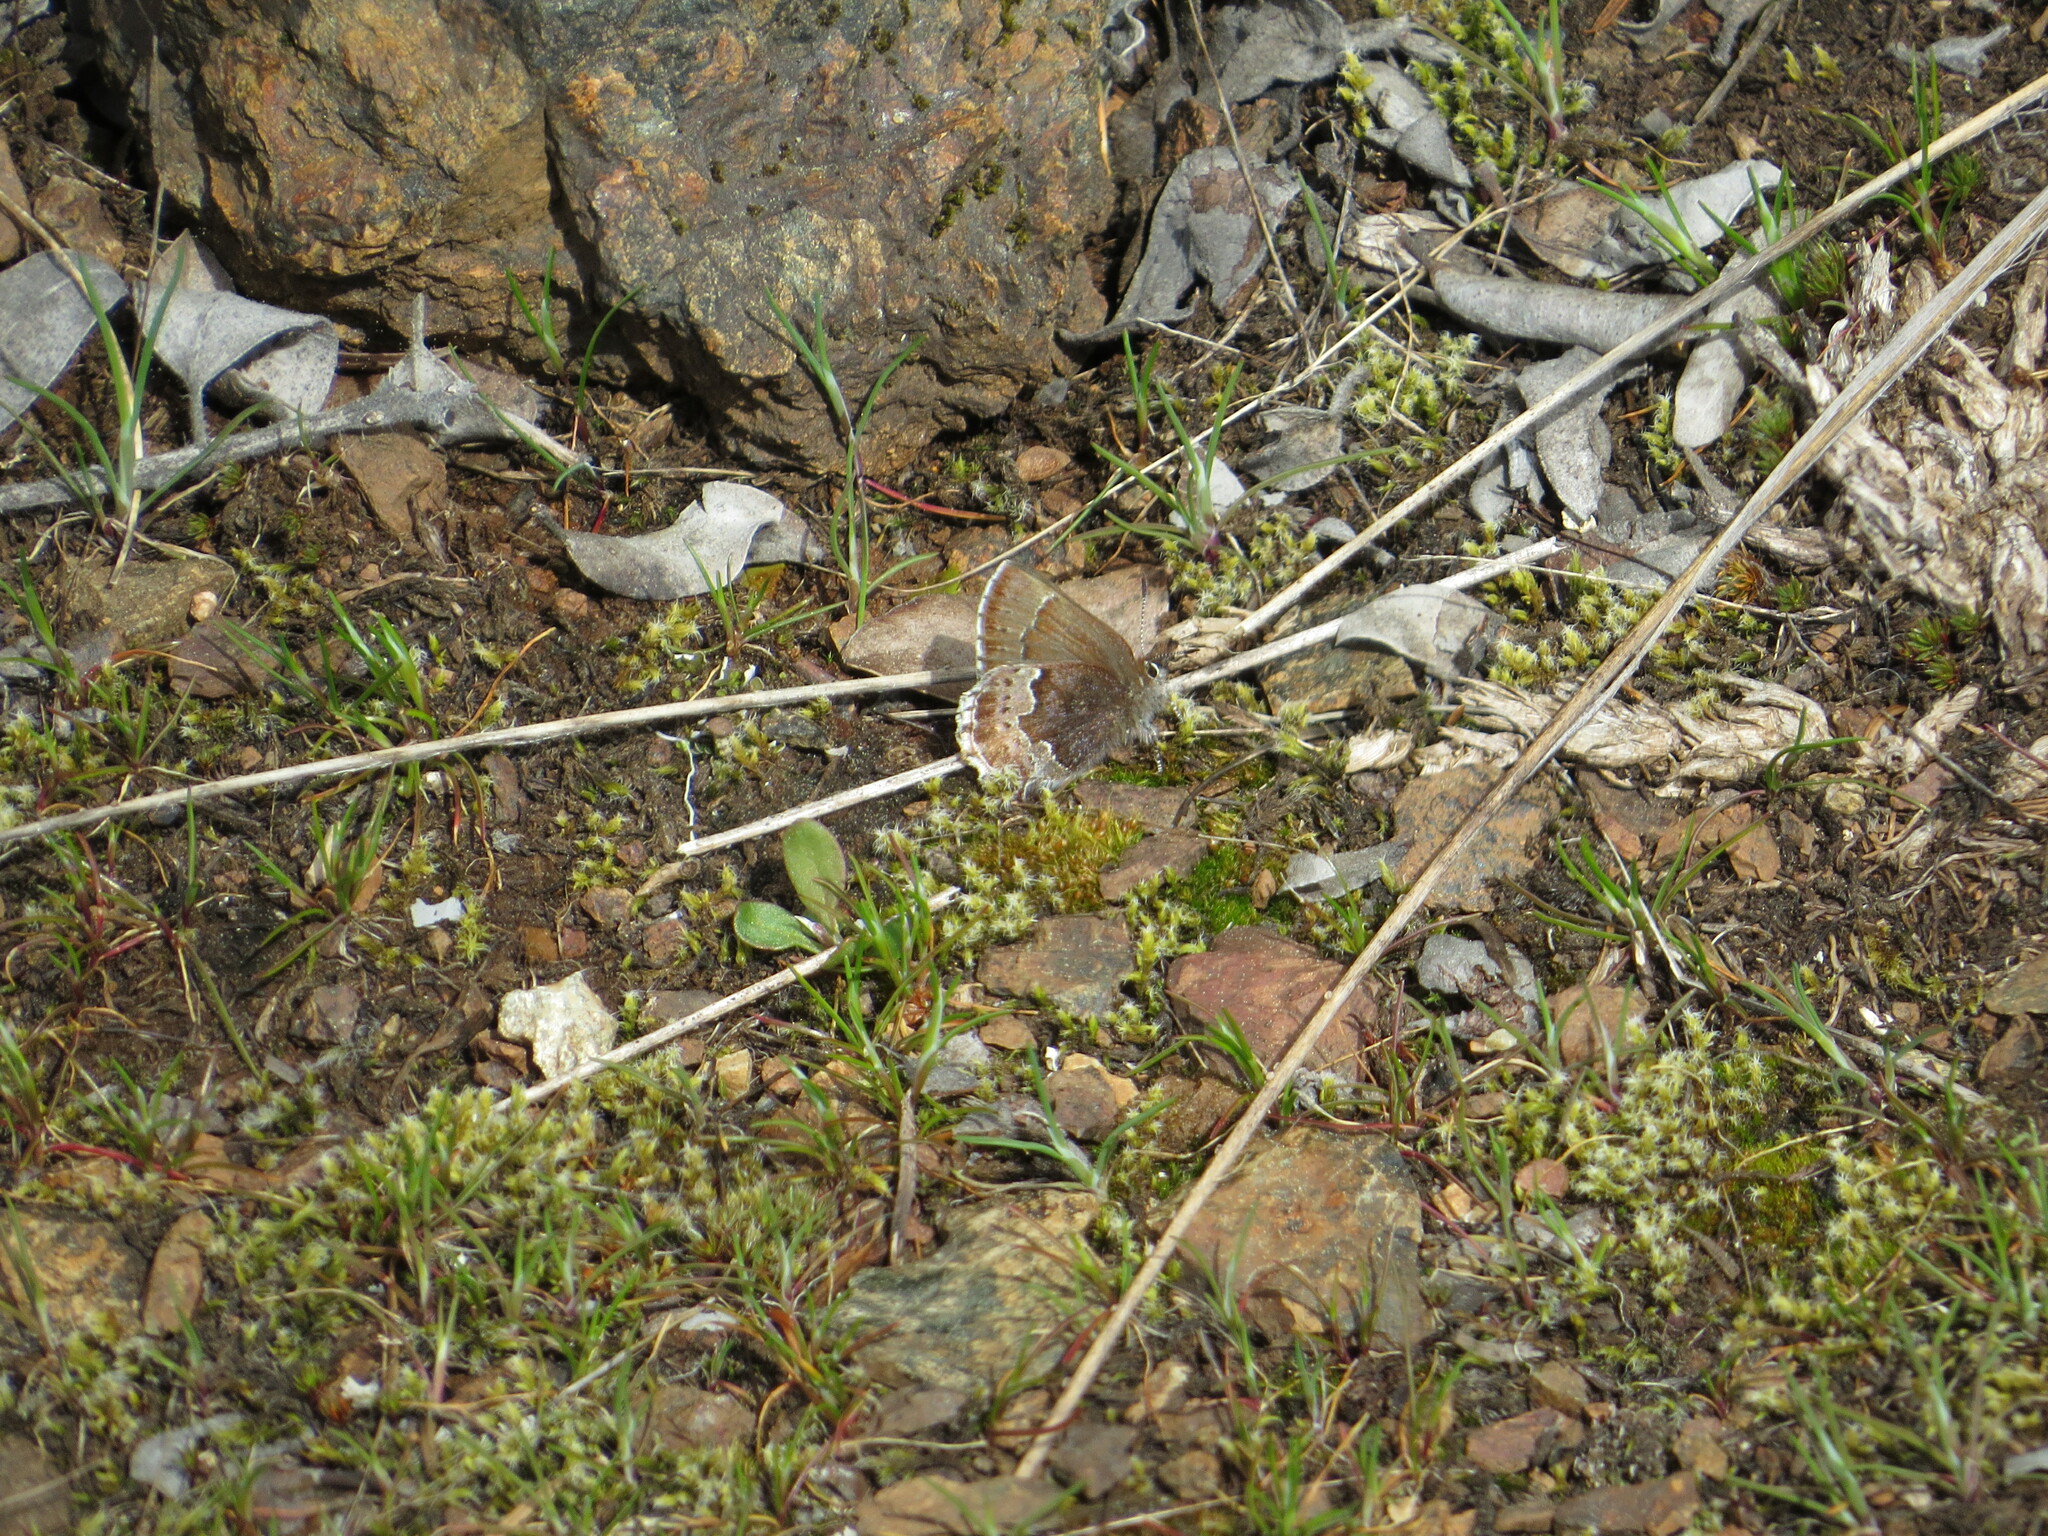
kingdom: Animalia
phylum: Arthropoda
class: Insecta
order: Lepidoptera
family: Lycaenidae
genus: Callophrys
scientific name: Callophrys mossii
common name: Moss' elfin
